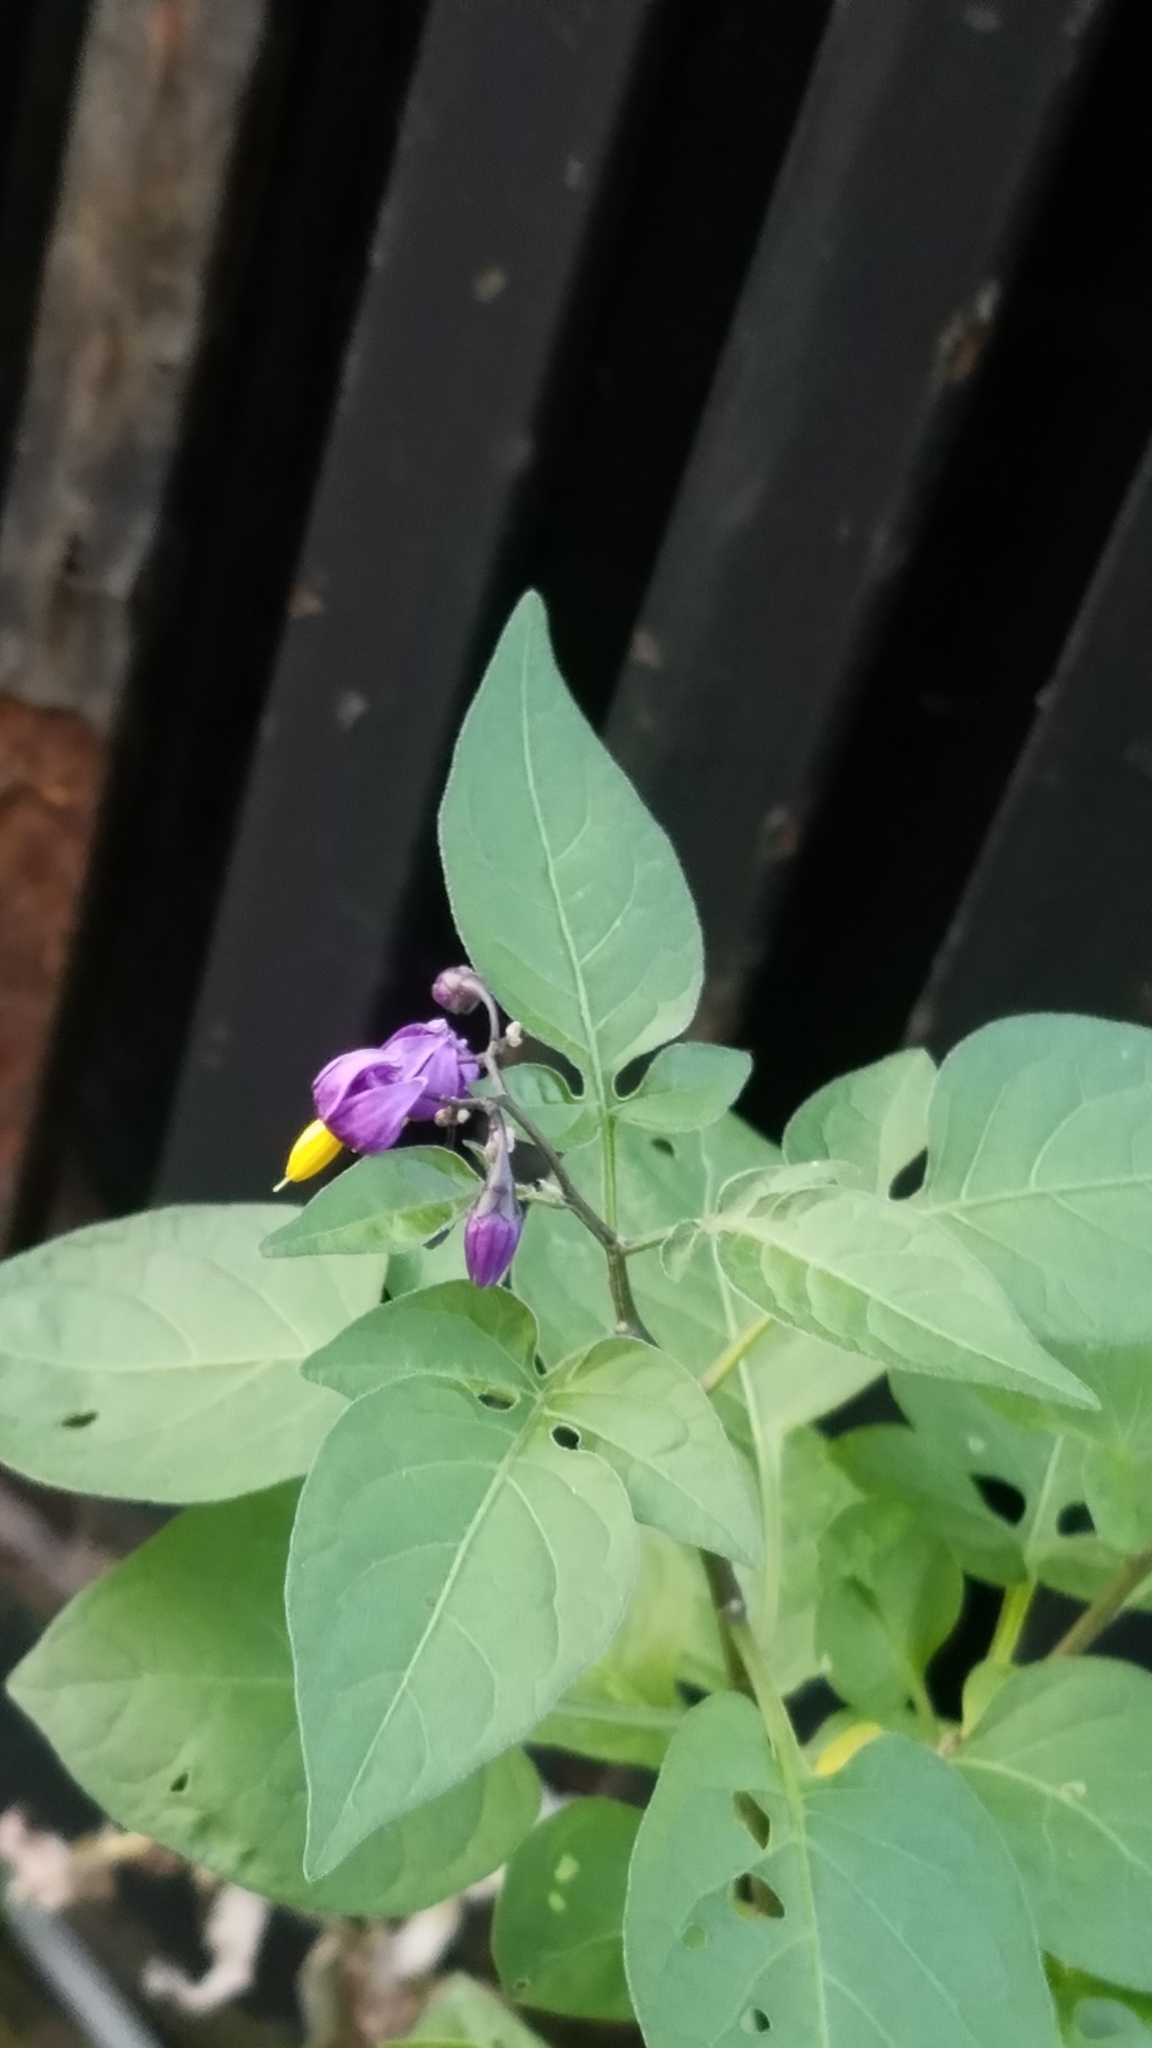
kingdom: Plantae
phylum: Tracheophyta
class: Magnoliopsida
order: Solanales
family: Solanaceae
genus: Solanum
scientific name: Solanum dulcamara
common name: Climbing nightshade
